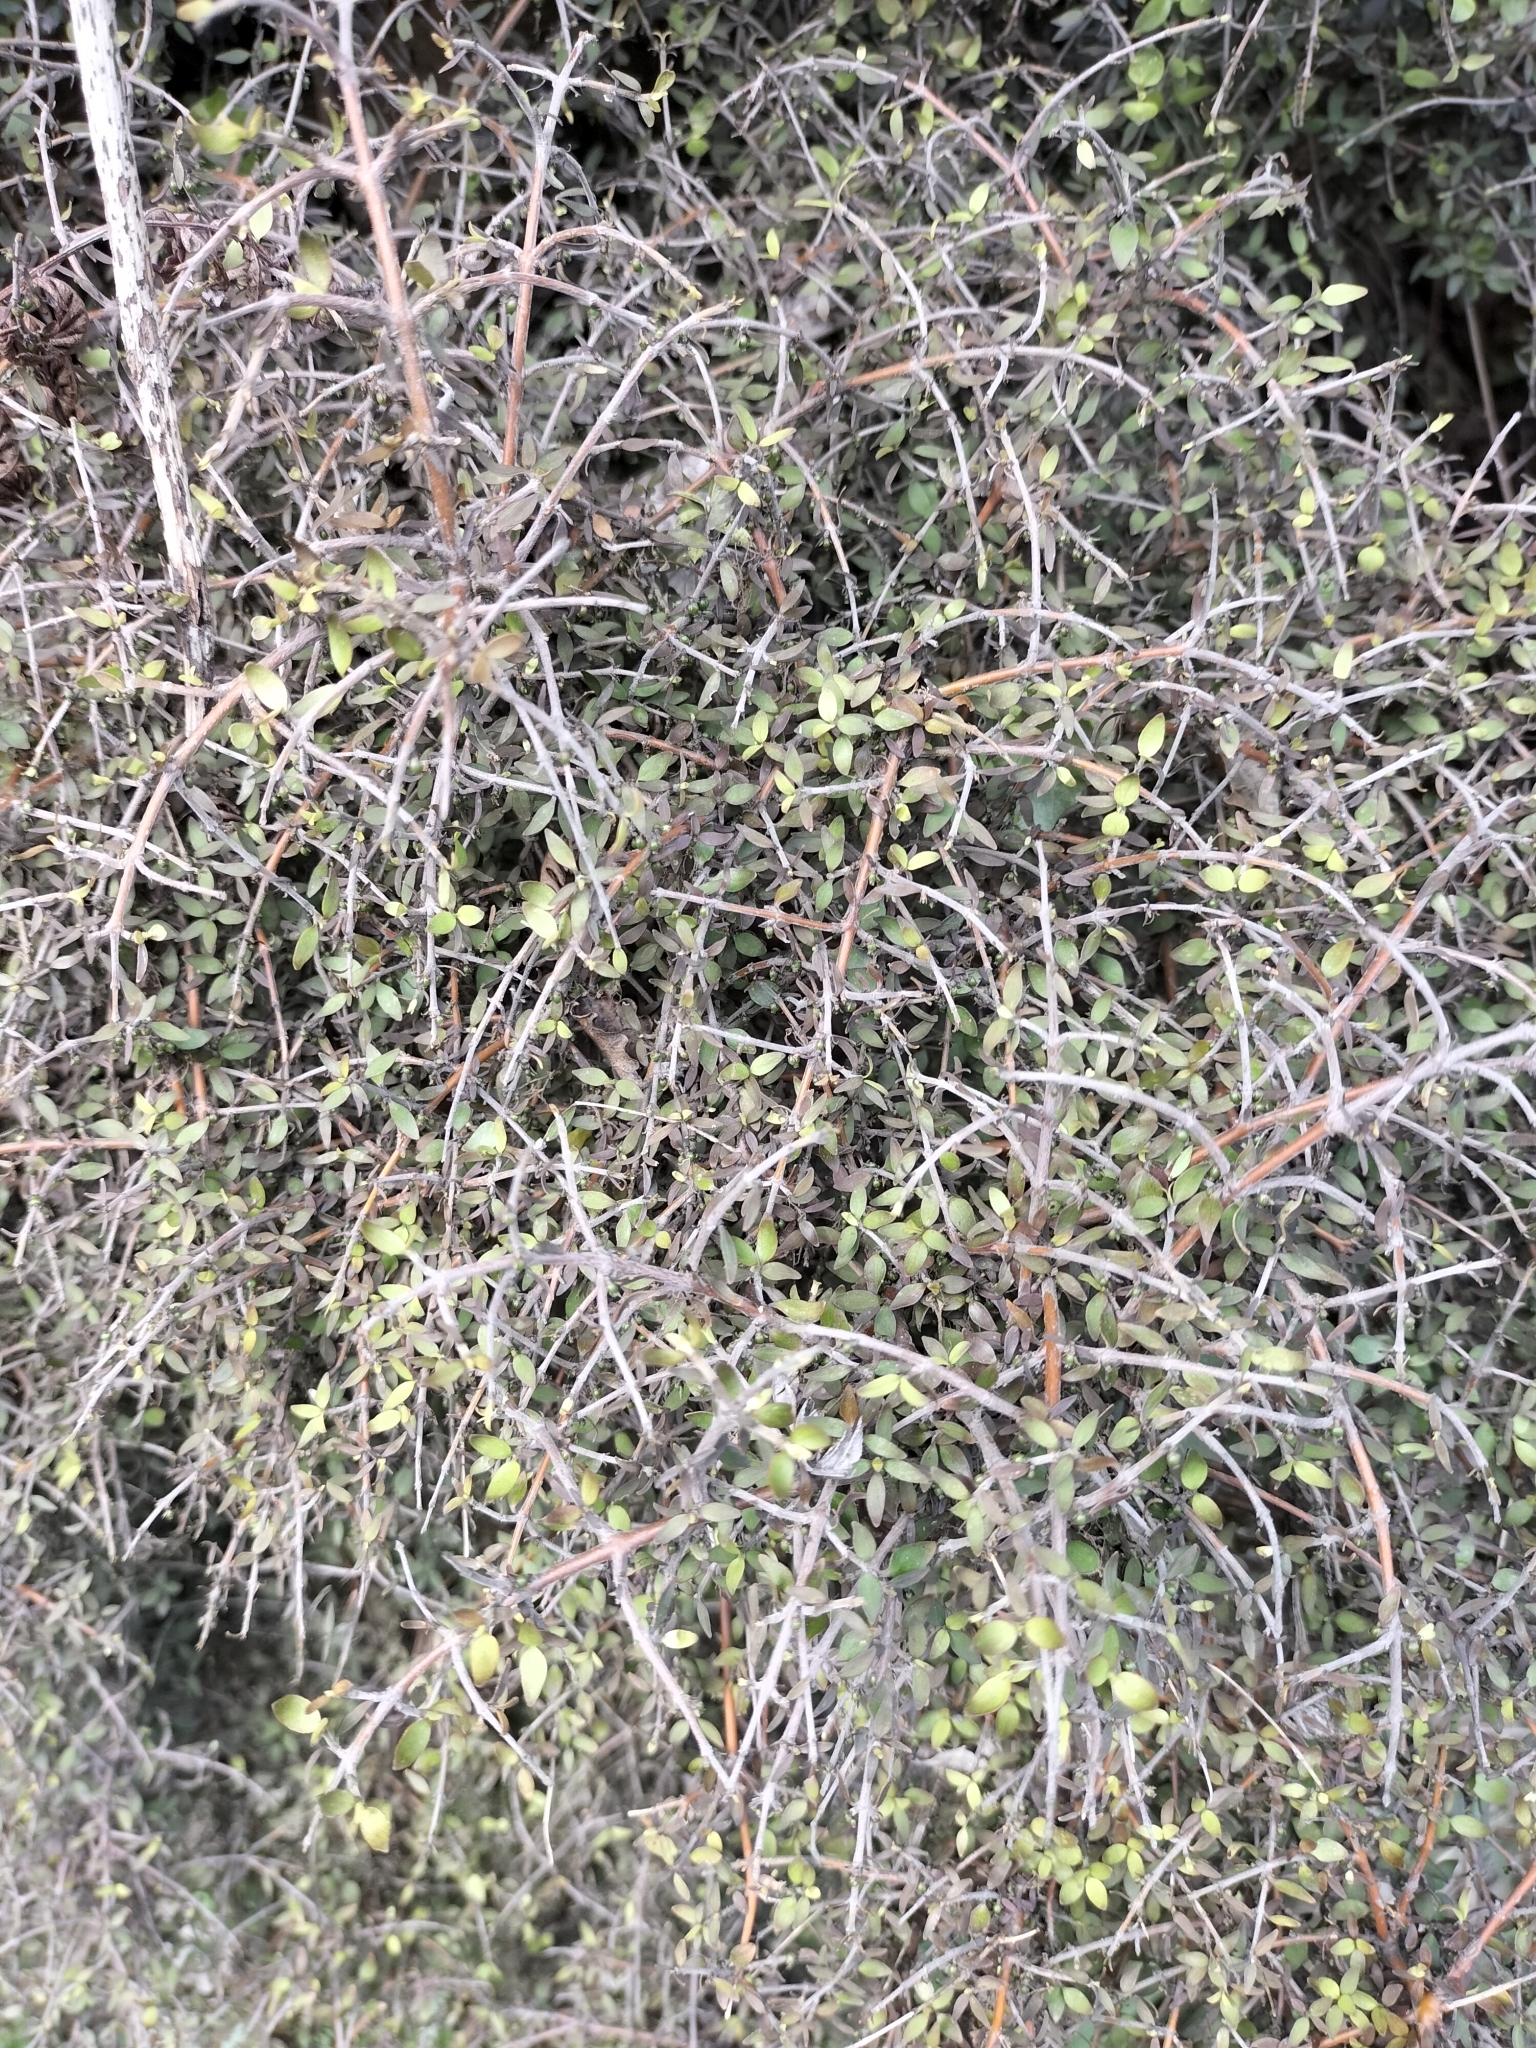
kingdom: Plantae
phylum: Tracheophyta
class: Magnoliopsida
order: Gentianales
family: Rubiaceae
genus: Coprosma
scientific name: Coprosma rhamnoides
